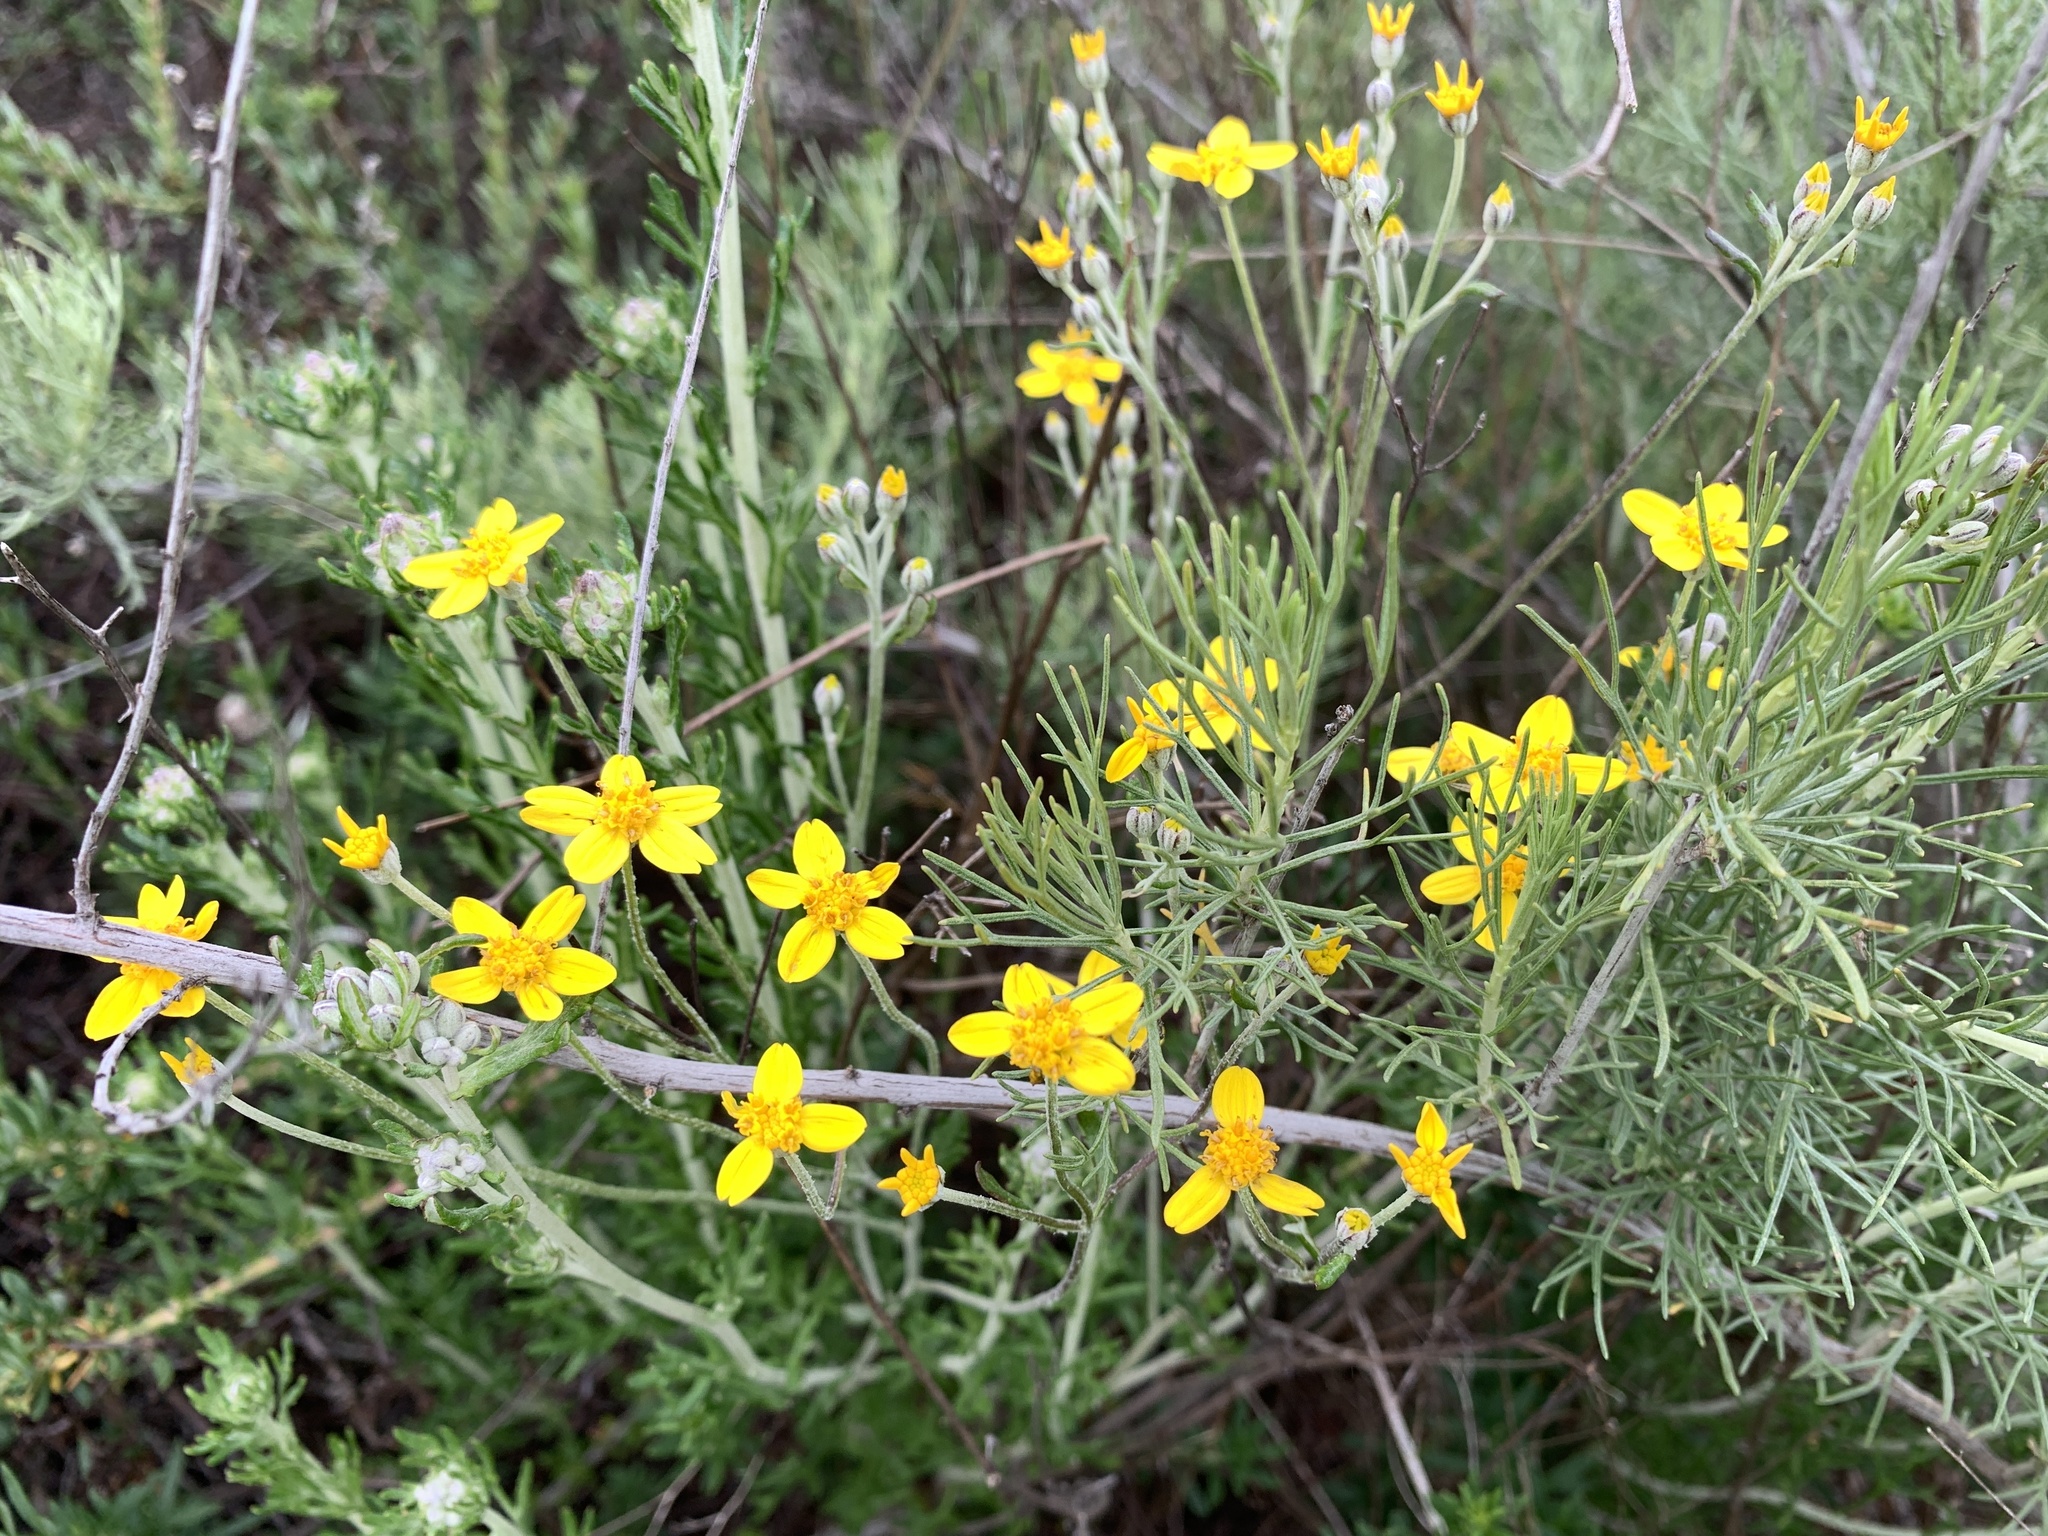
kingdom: Plantae
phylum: Tracheophyta
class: Magnoliopsida
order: Asterales
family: Asteraceae
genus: Eriophyllum
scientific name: Eriophyllum confertiflorum
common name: Golden-yarrow
